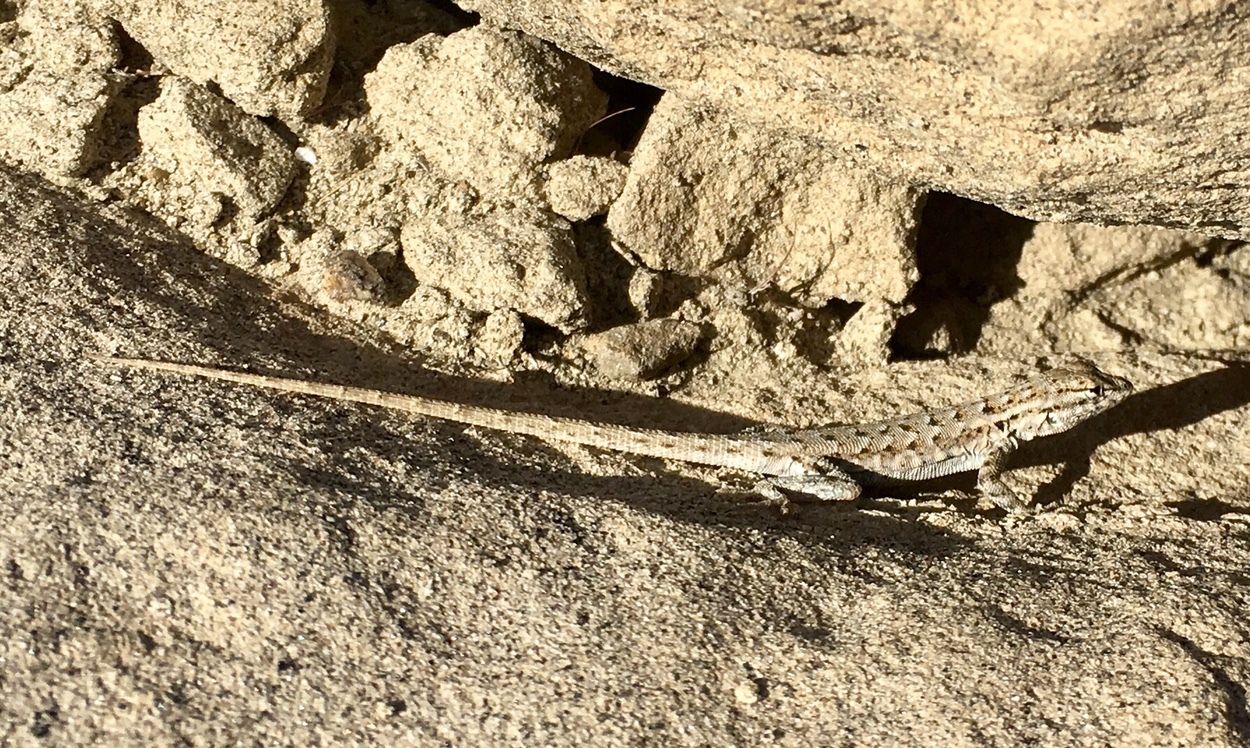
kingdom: Animalia
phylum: Chordata
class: Squamata
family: Phrynosomatidae
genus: Uta
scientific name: Uta stansburiana
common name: Side-blotched lizard
